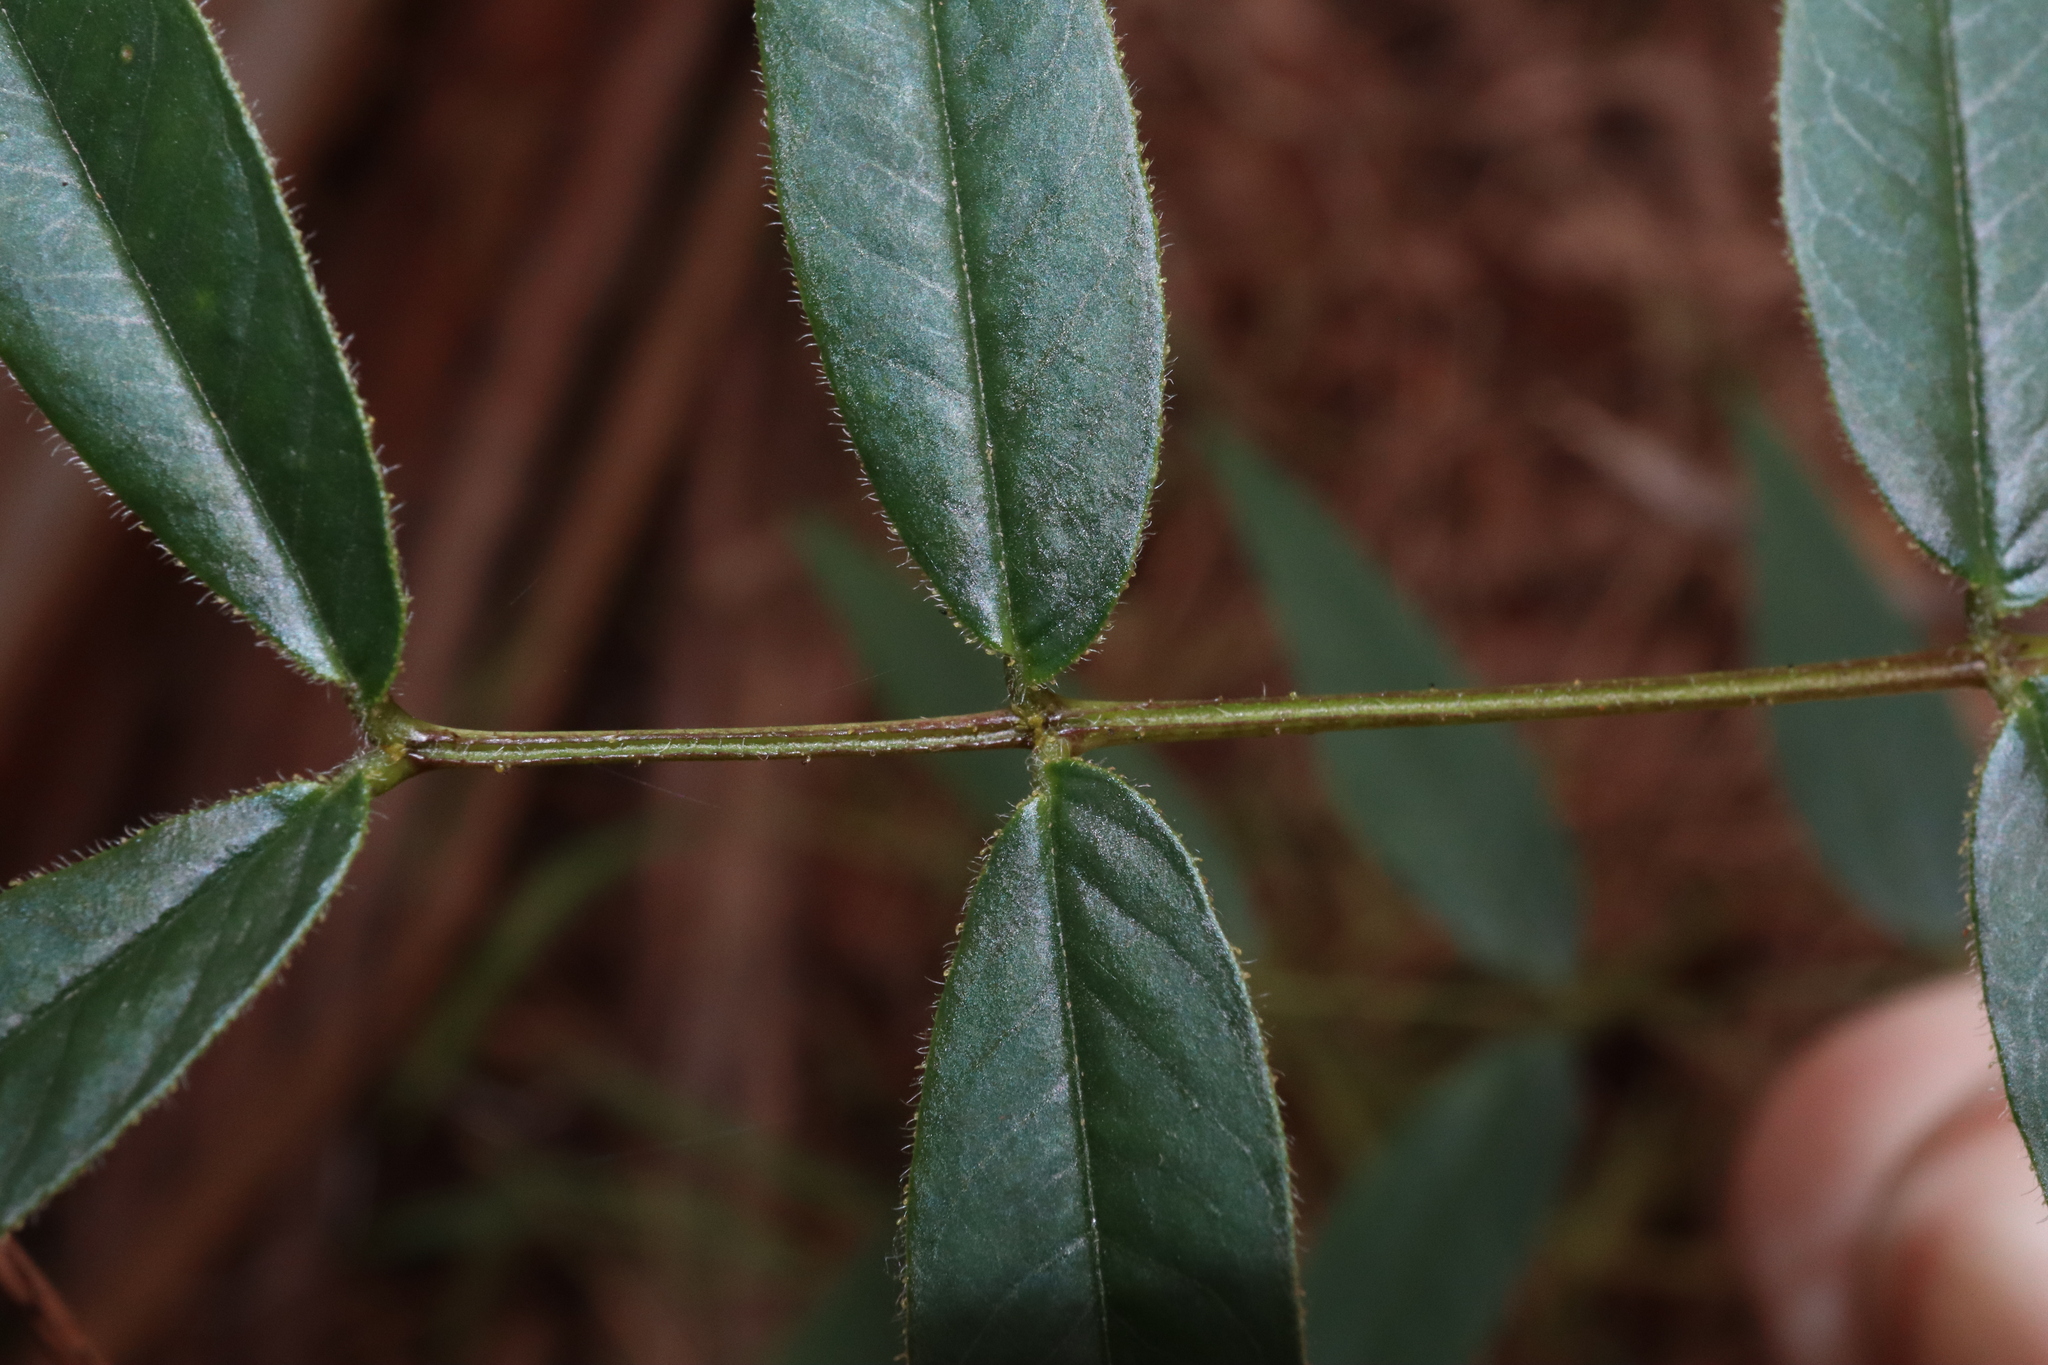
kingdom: Plantae
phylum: Tracheophyta
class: Magnoliopsida
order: Fabales
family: Fabaceae
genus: Senna
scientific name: Senna clavigera
